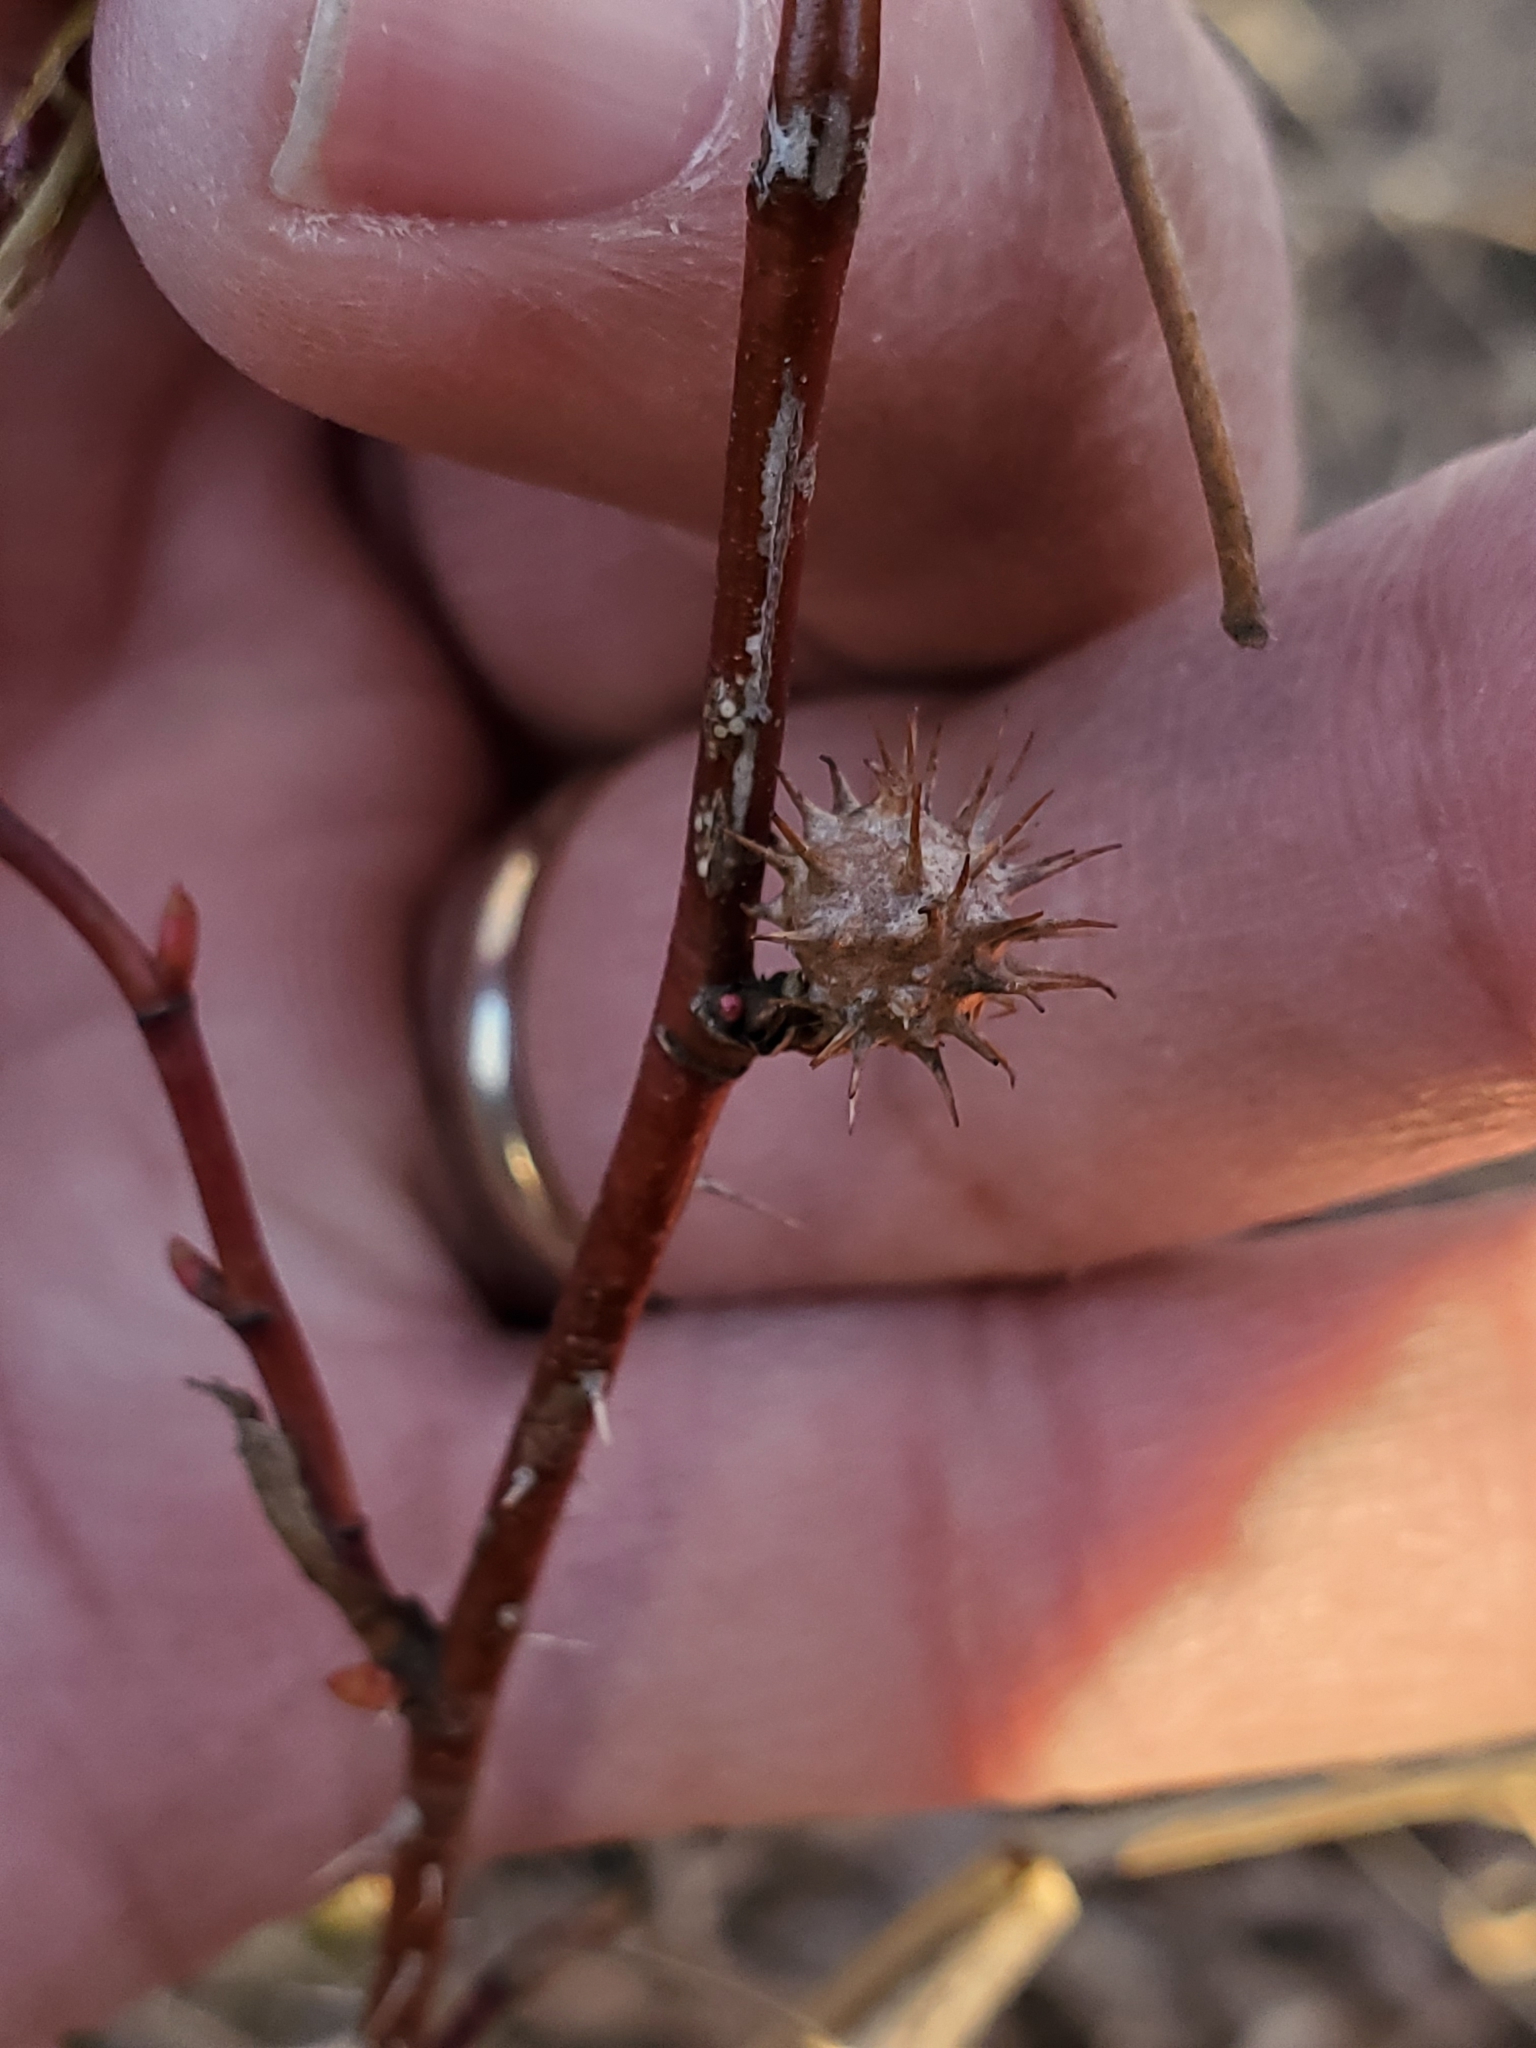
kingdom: Animalia
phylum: Arthropoda
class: Insecta
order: Hymenoptera
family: Cynipidae
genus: Diplolepis
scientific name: Diplolepis bicolor
